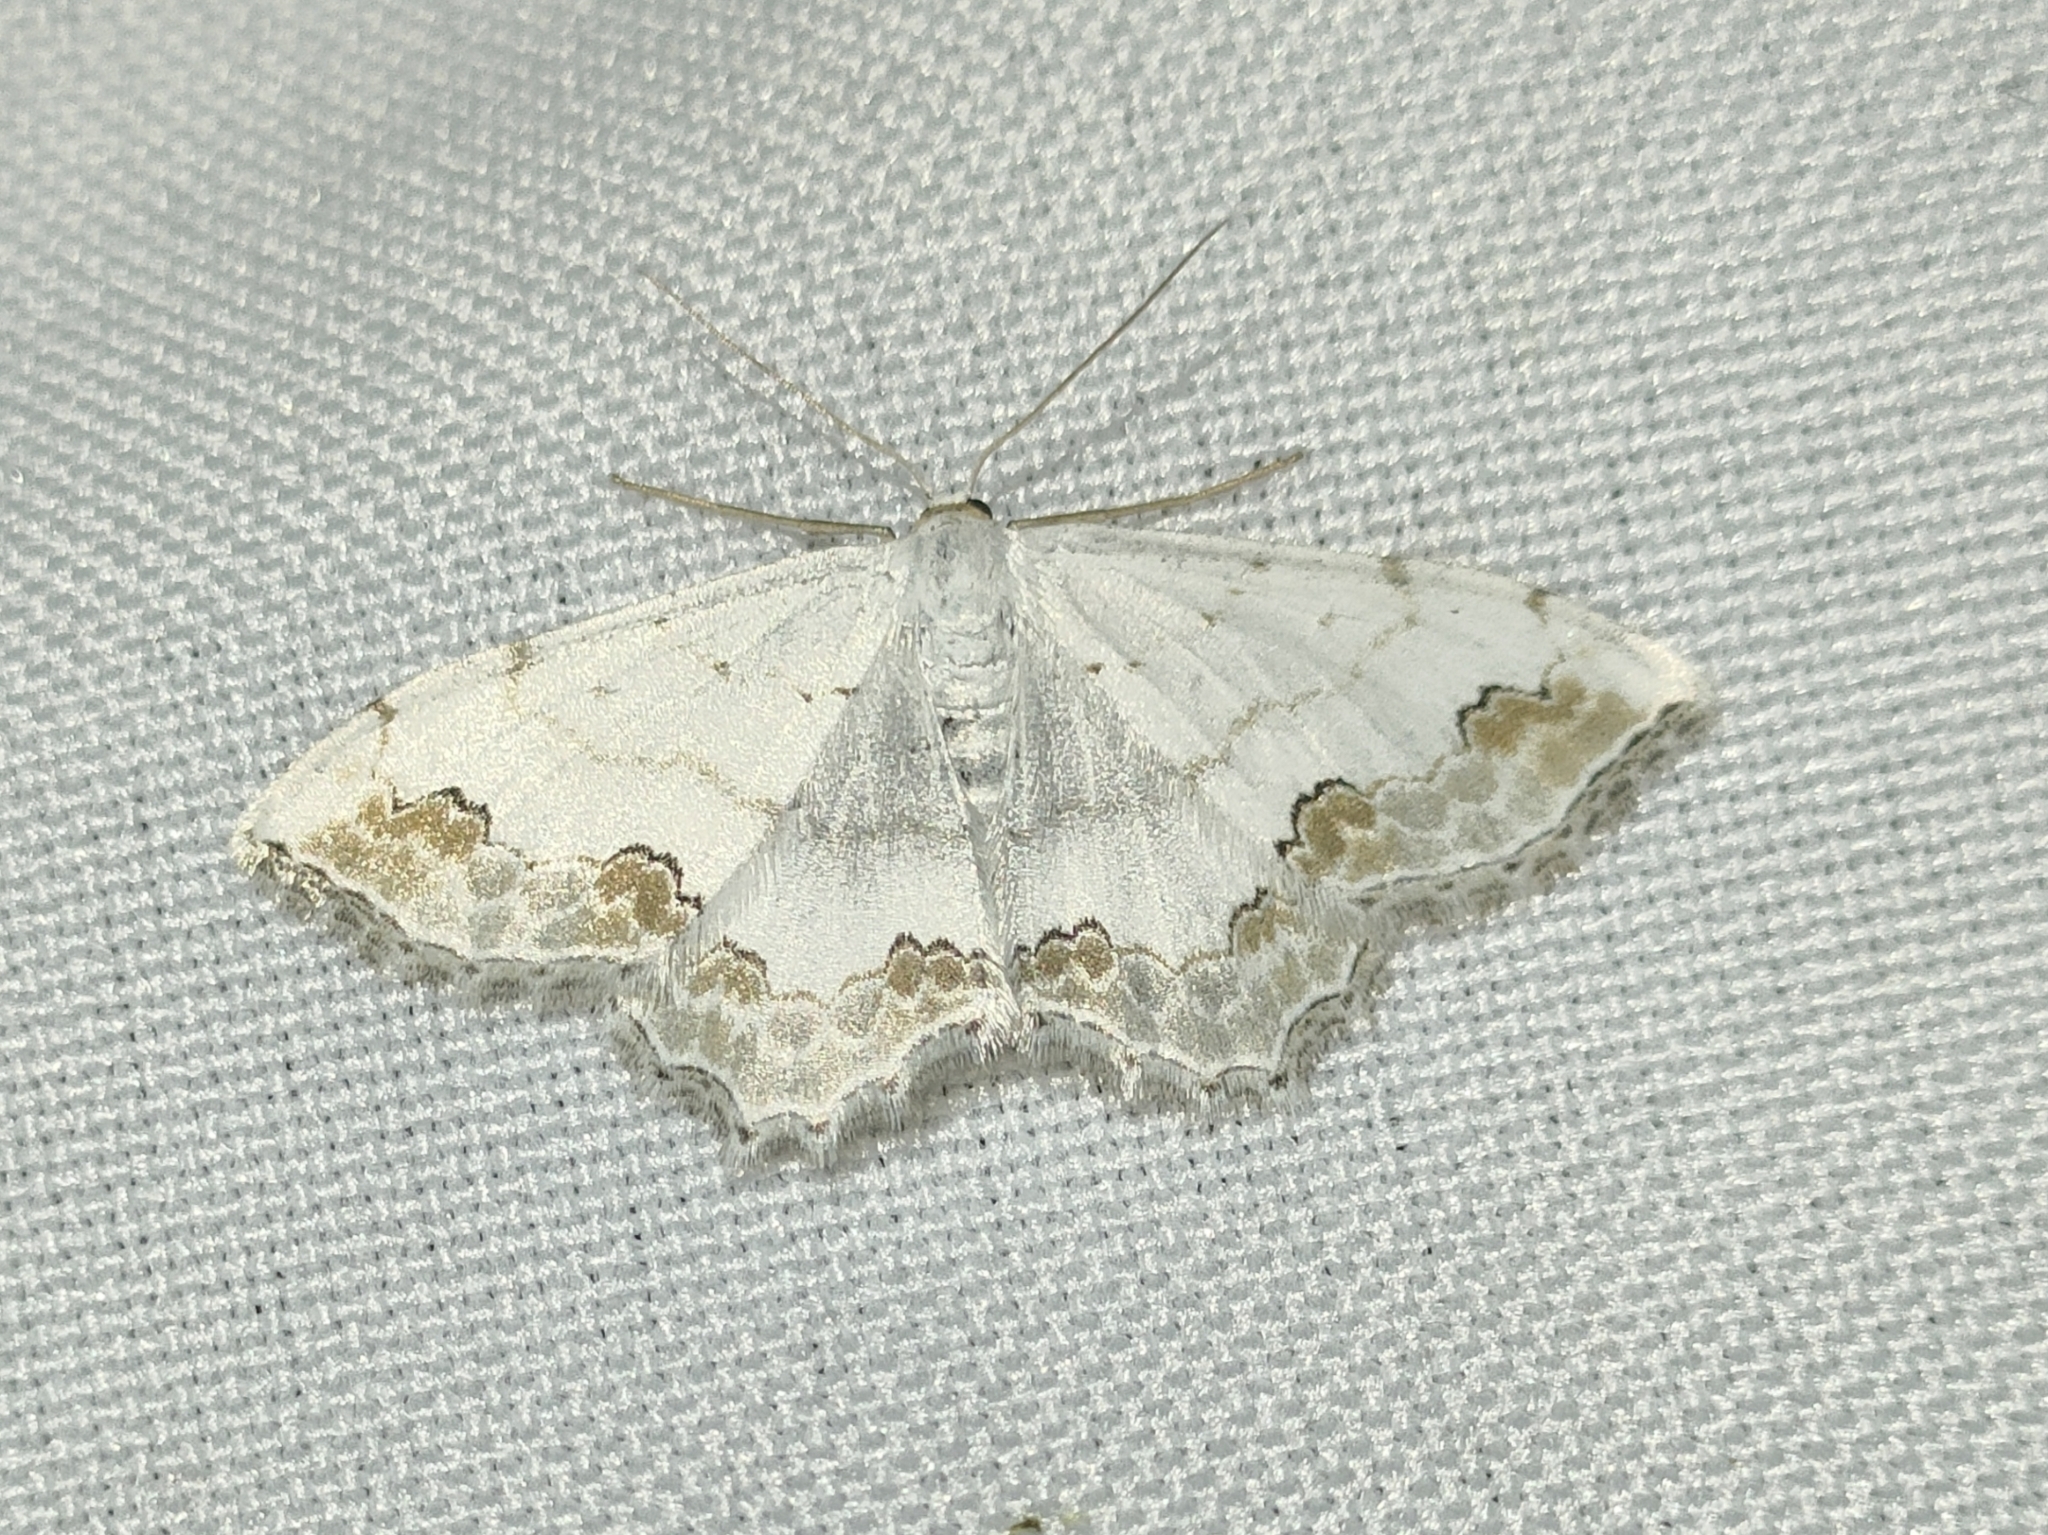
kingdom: Animalia
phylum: Arthropoda
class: Insecta
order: Lepidoptera
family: Geometridae
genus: Scopula
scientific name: Scopula ornata
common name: Lace border
